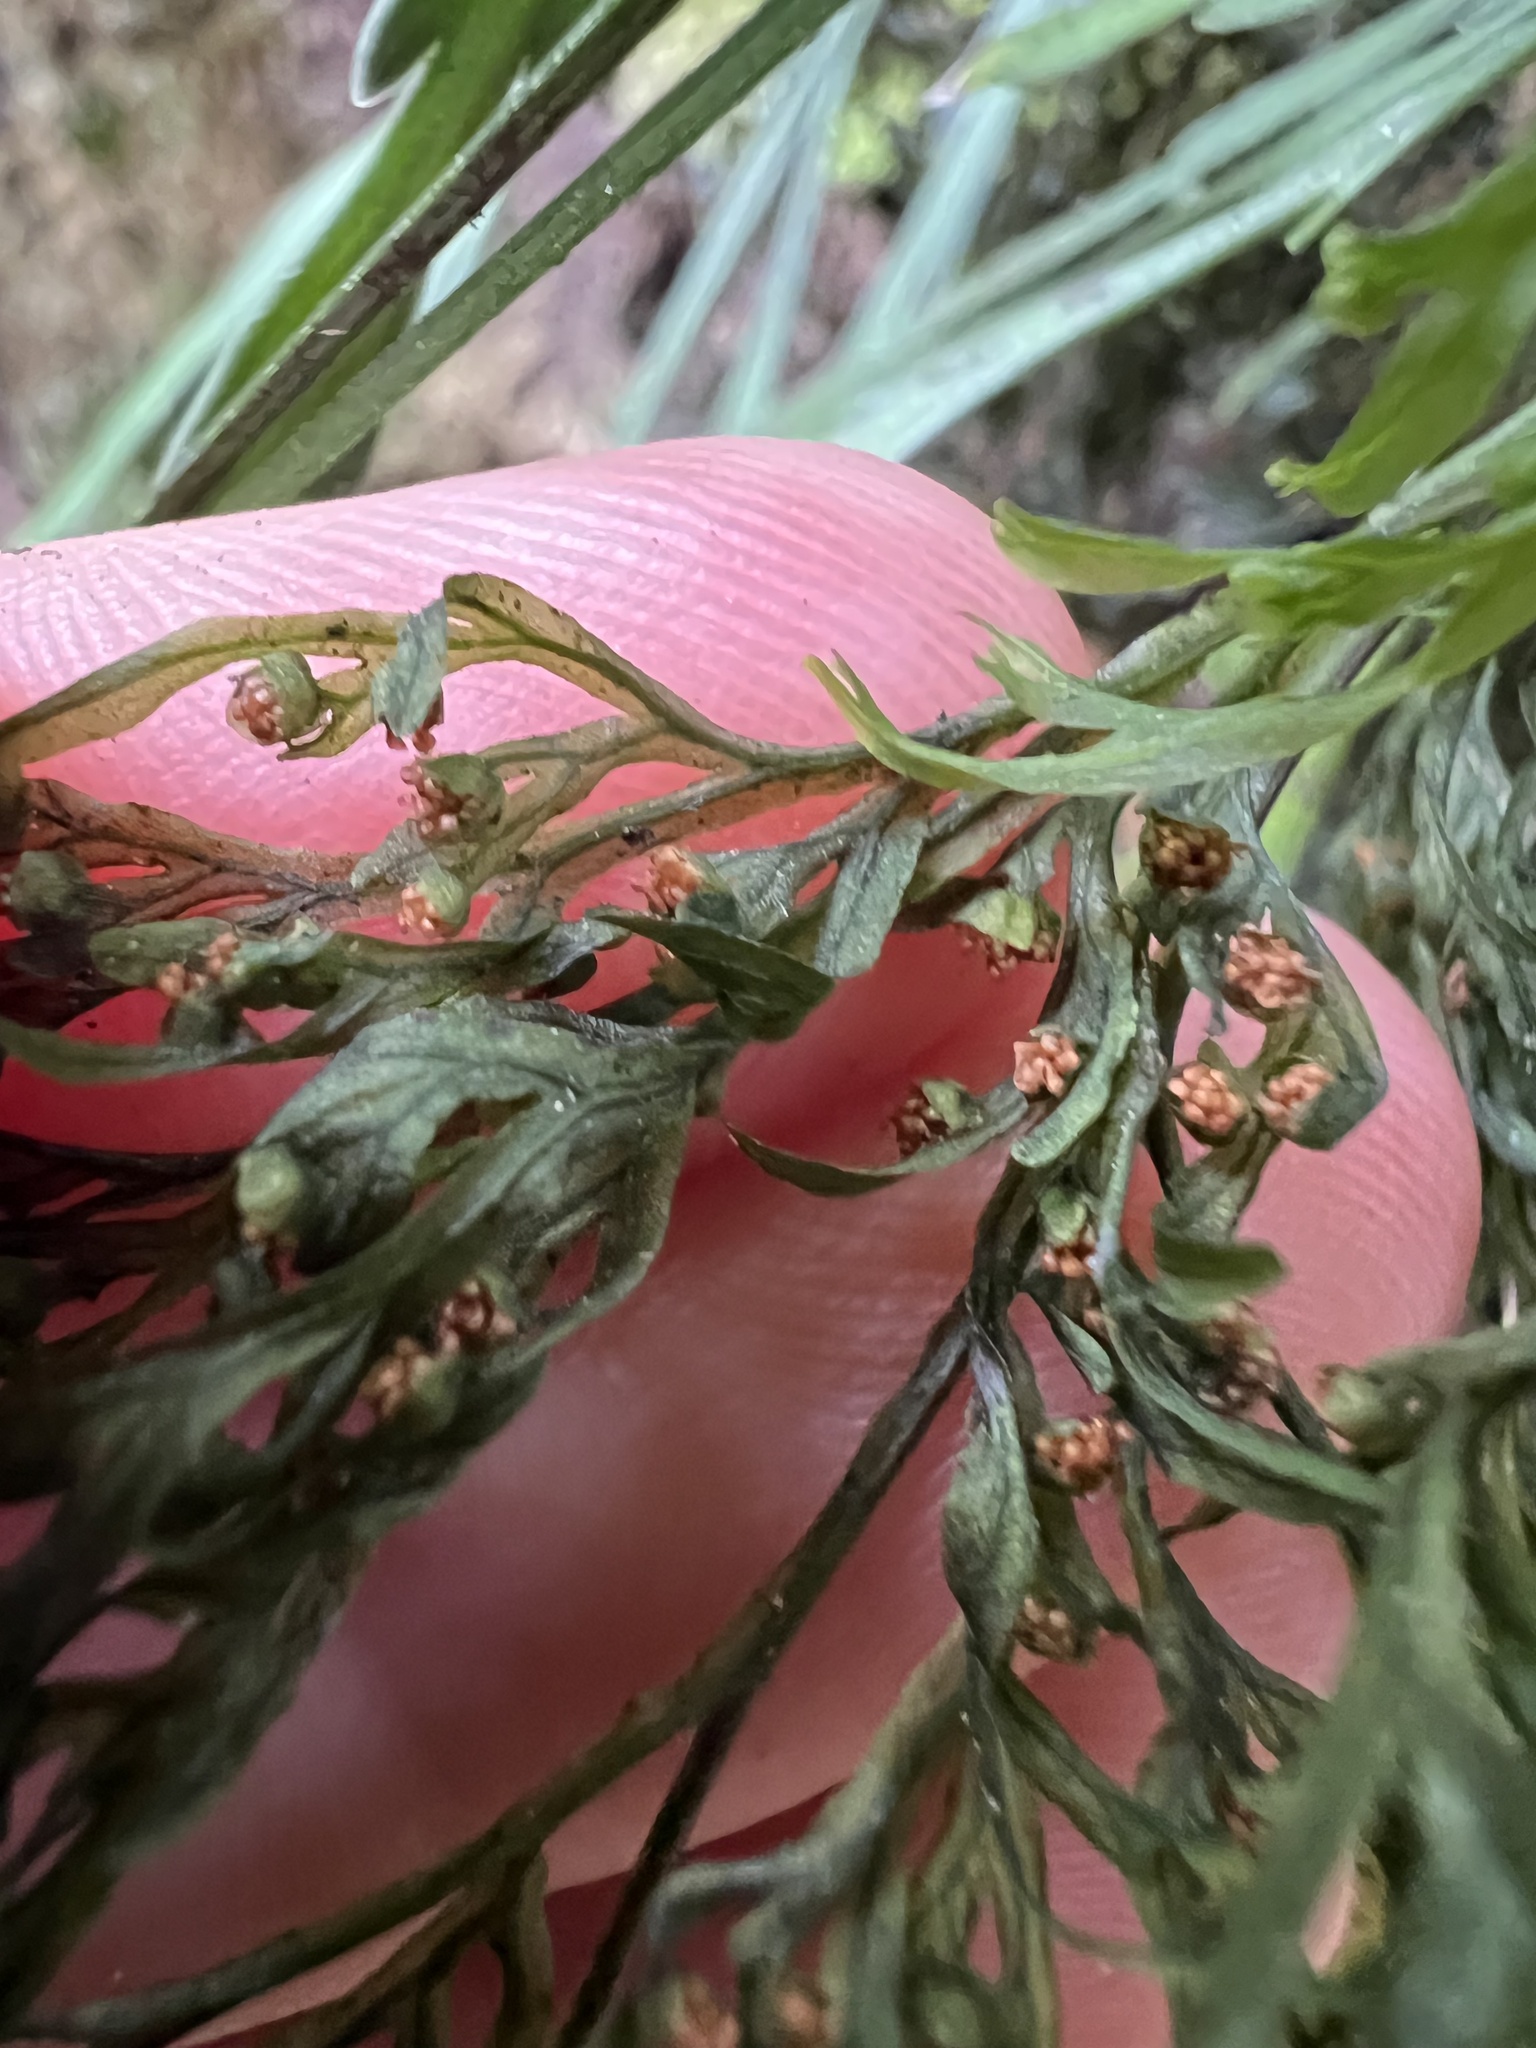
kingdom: Plantae
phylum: Tracheophyta
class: Polypodiopsida
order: Hymenophyllales
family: Hymenophyllaceae
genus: Hymenophyllum
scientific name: Hymenophyllum pulcherrimum
